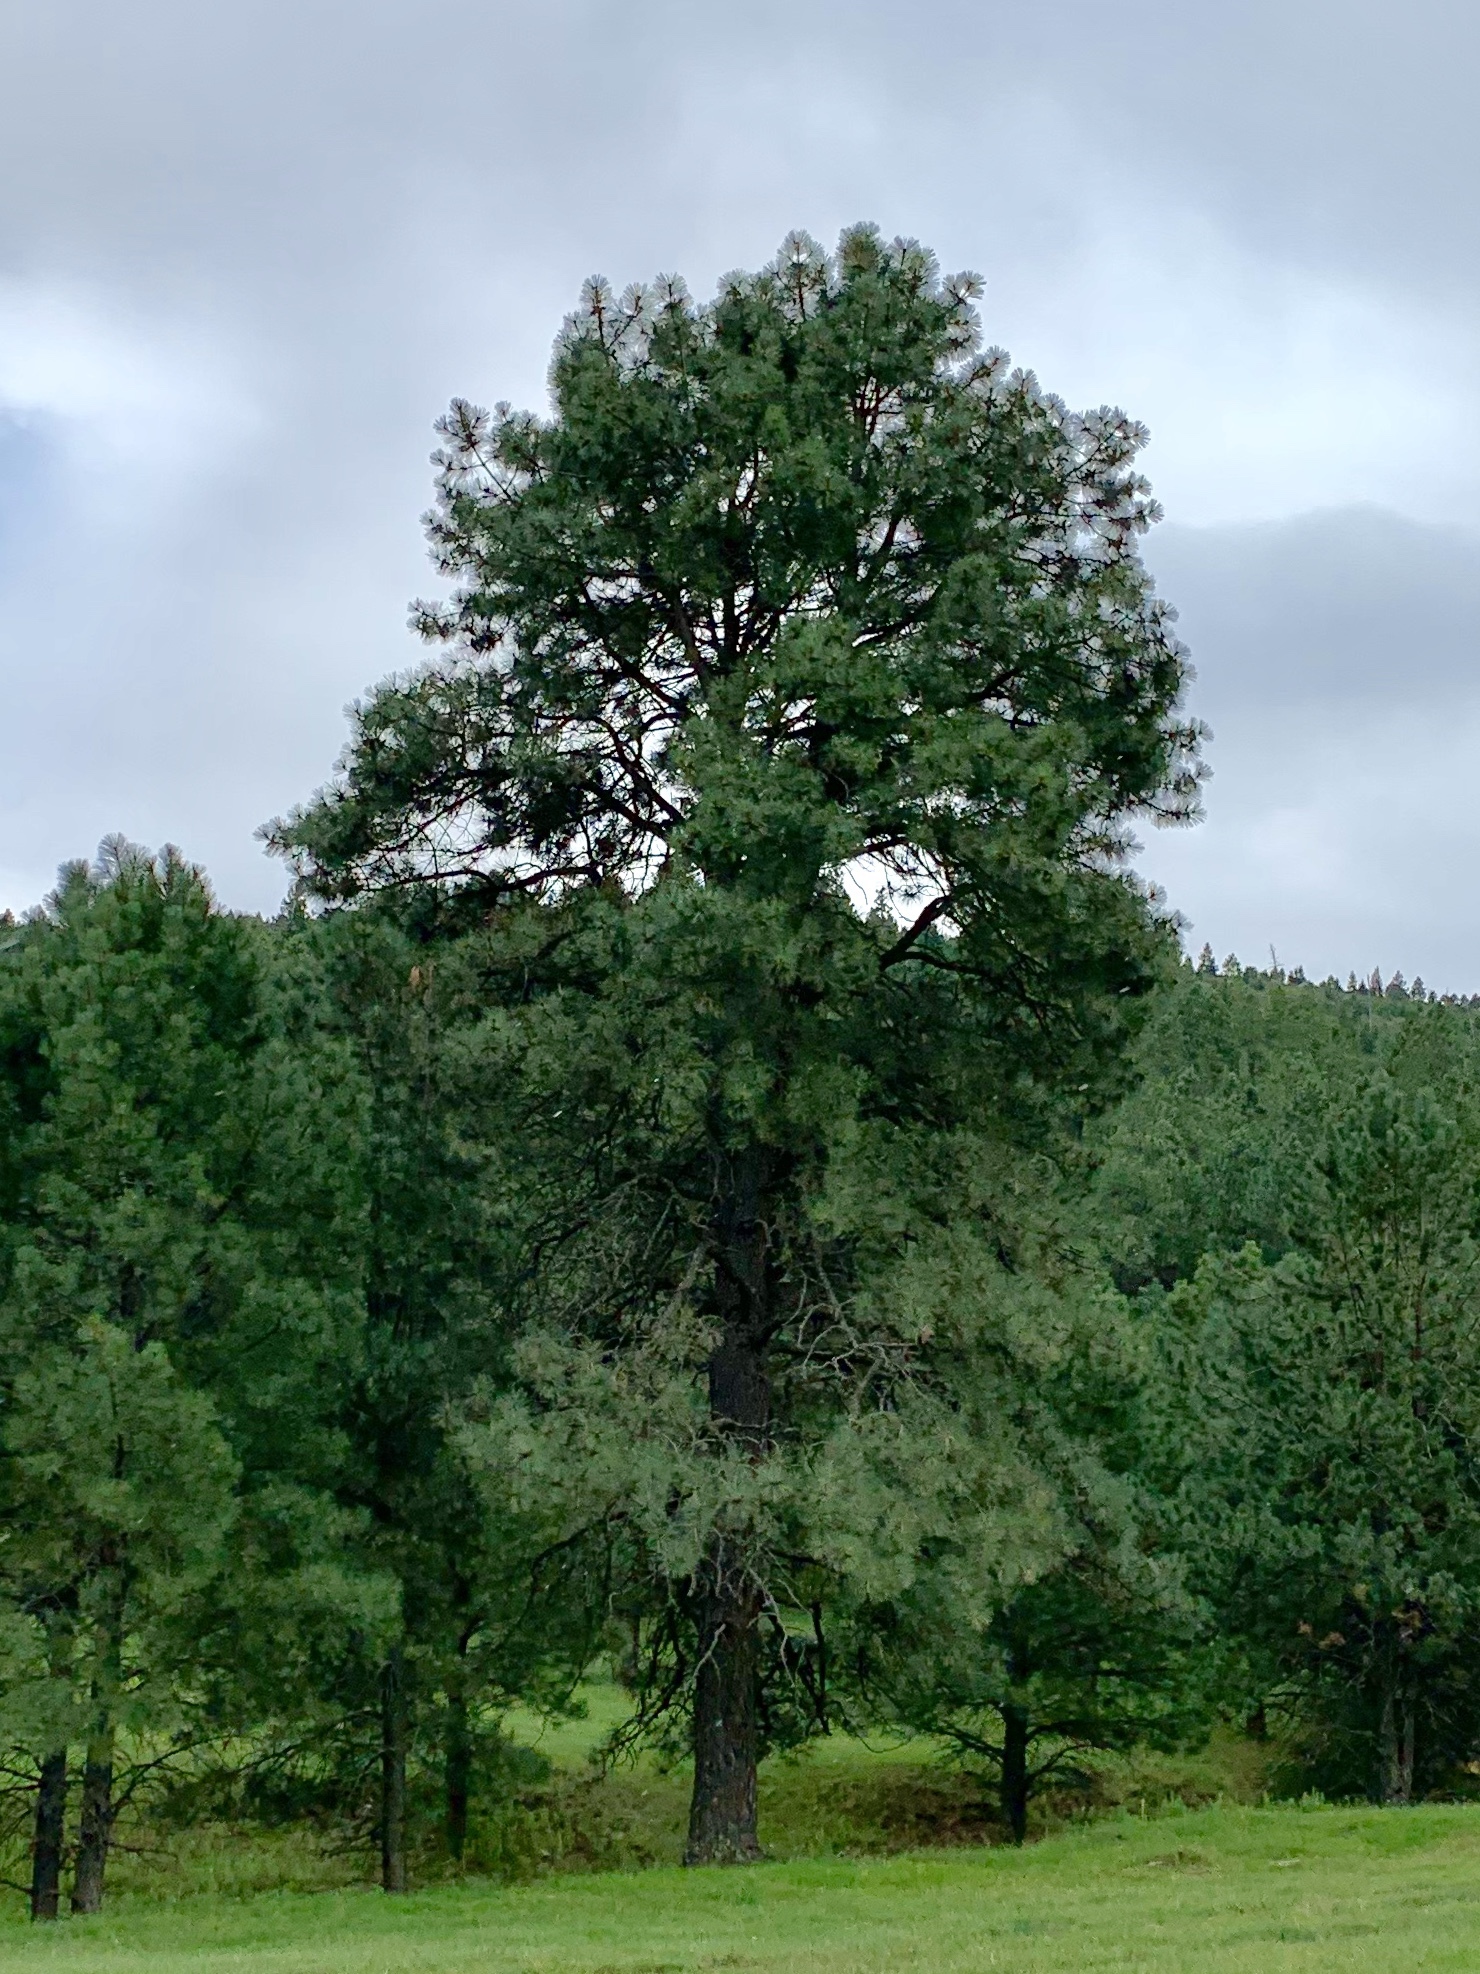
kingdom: Plantae
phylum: Tracheophyta
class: Pinopsida
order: Pinales
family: Pinaceae
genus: Pinus
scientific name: Pinus ponderosa
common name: Western yellow-pine
